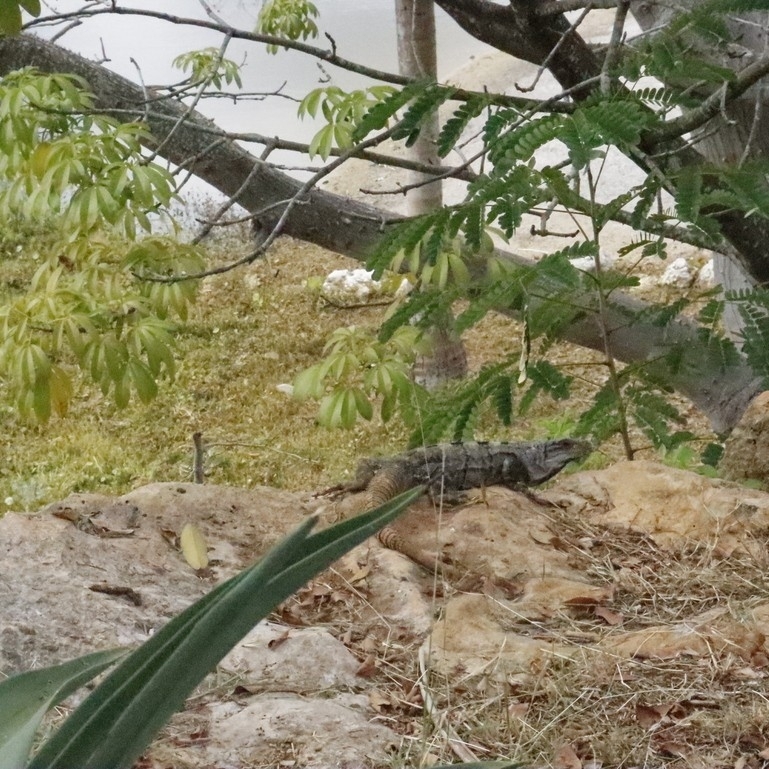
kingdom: Animalia
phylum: Chordata
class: Squamata
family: Iguanidae
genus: Ctenosaura
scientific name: Ctenosaura similis
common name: Black spiny-tailed iguana
